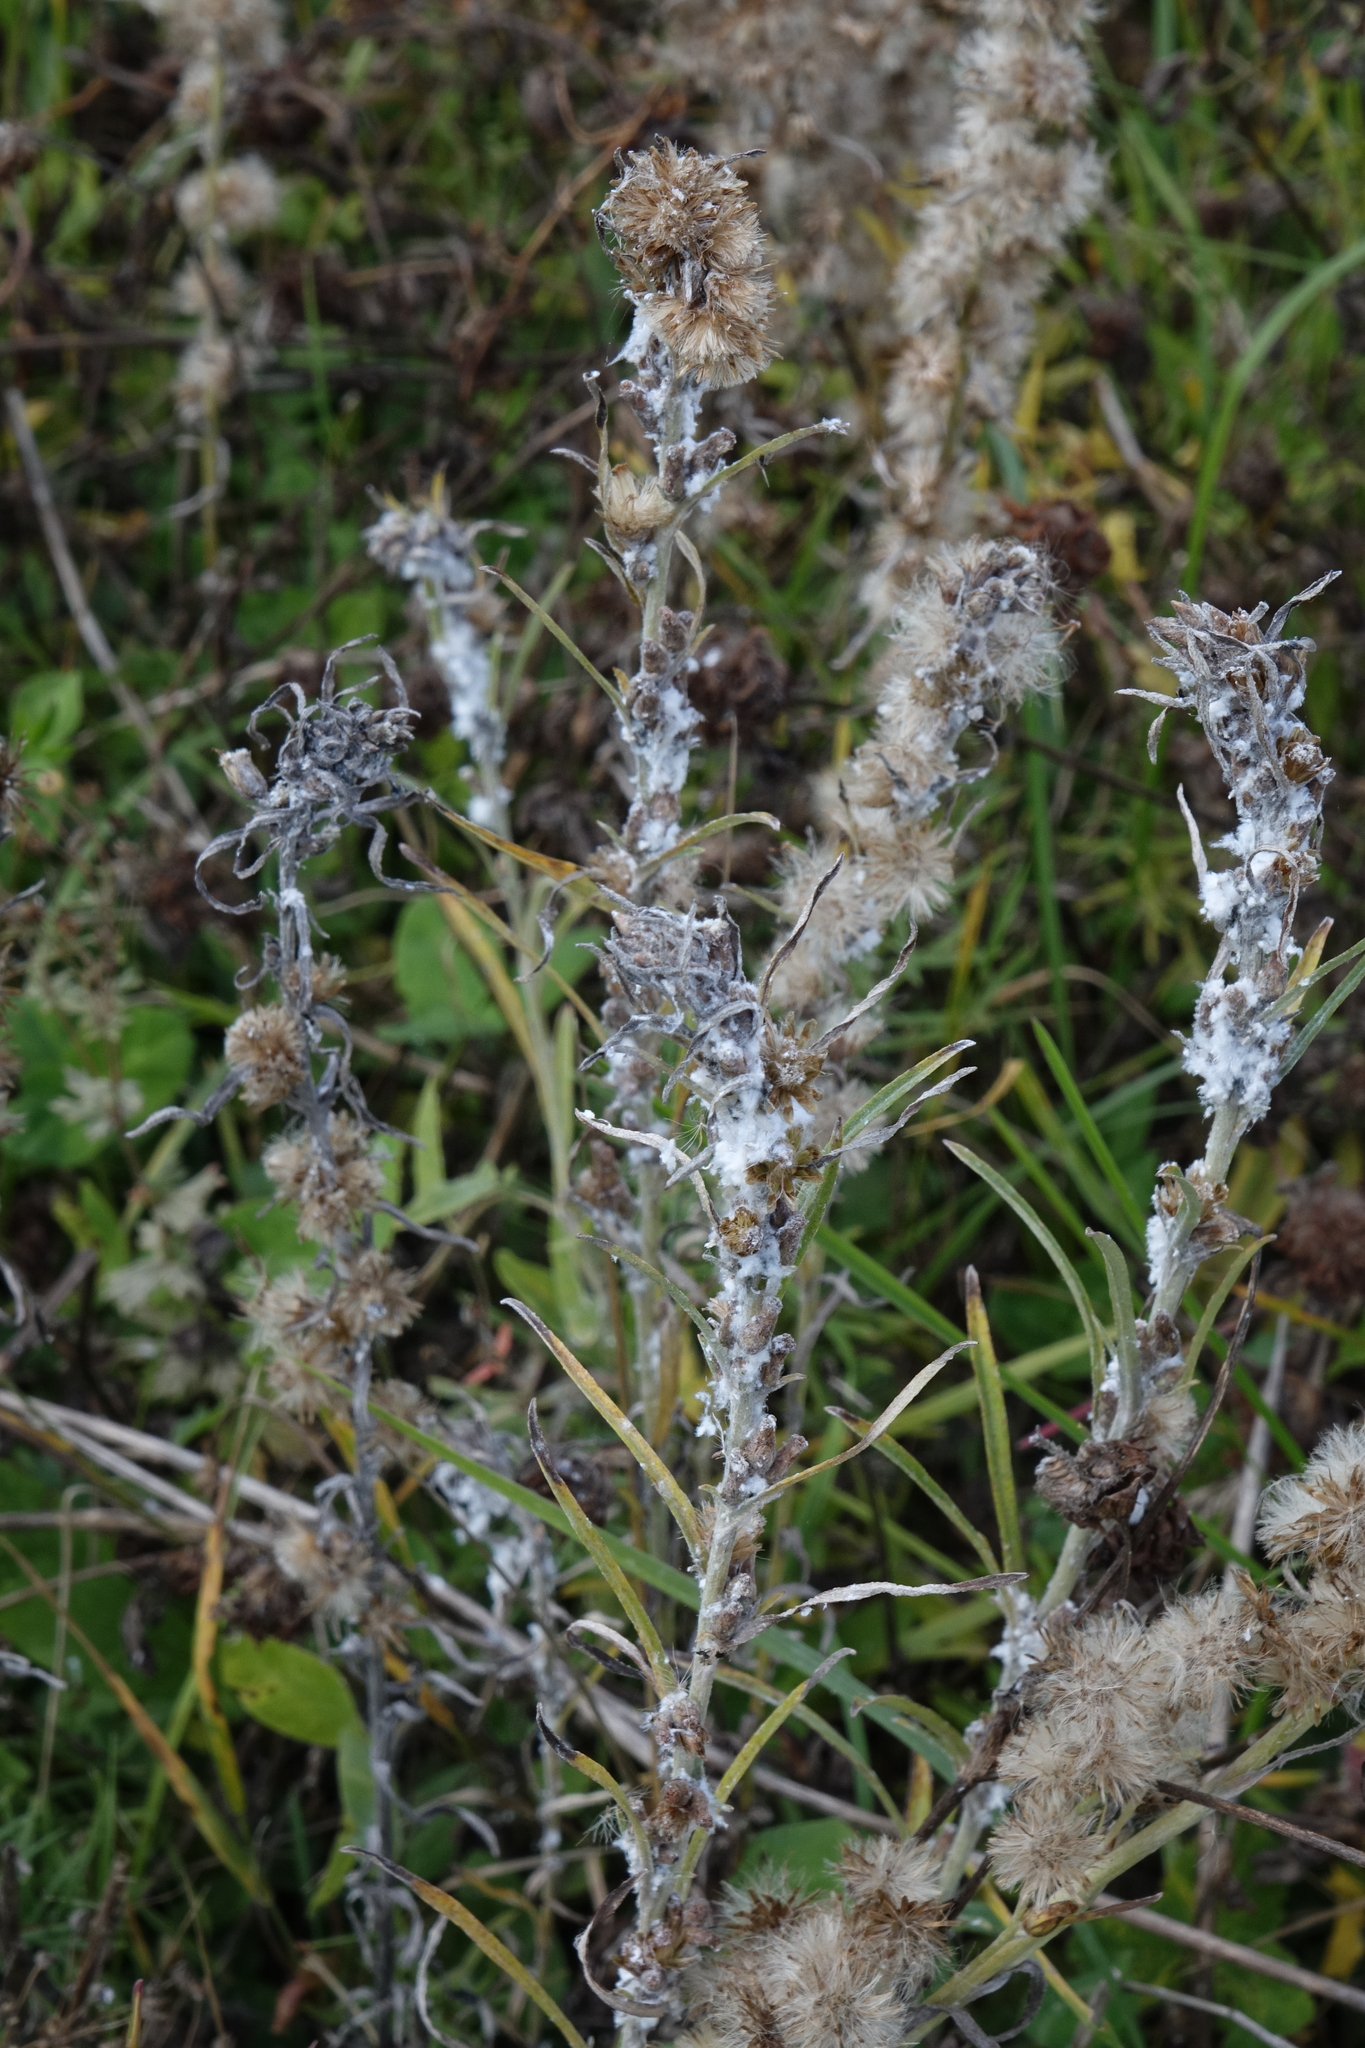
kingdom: Plantae
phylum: Tracheophyta
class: Magnoliopsida
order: Asterales
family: Asteraceae
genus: Omalotheca
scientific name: Omalotheca sylvatica
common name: Heath cudweed
